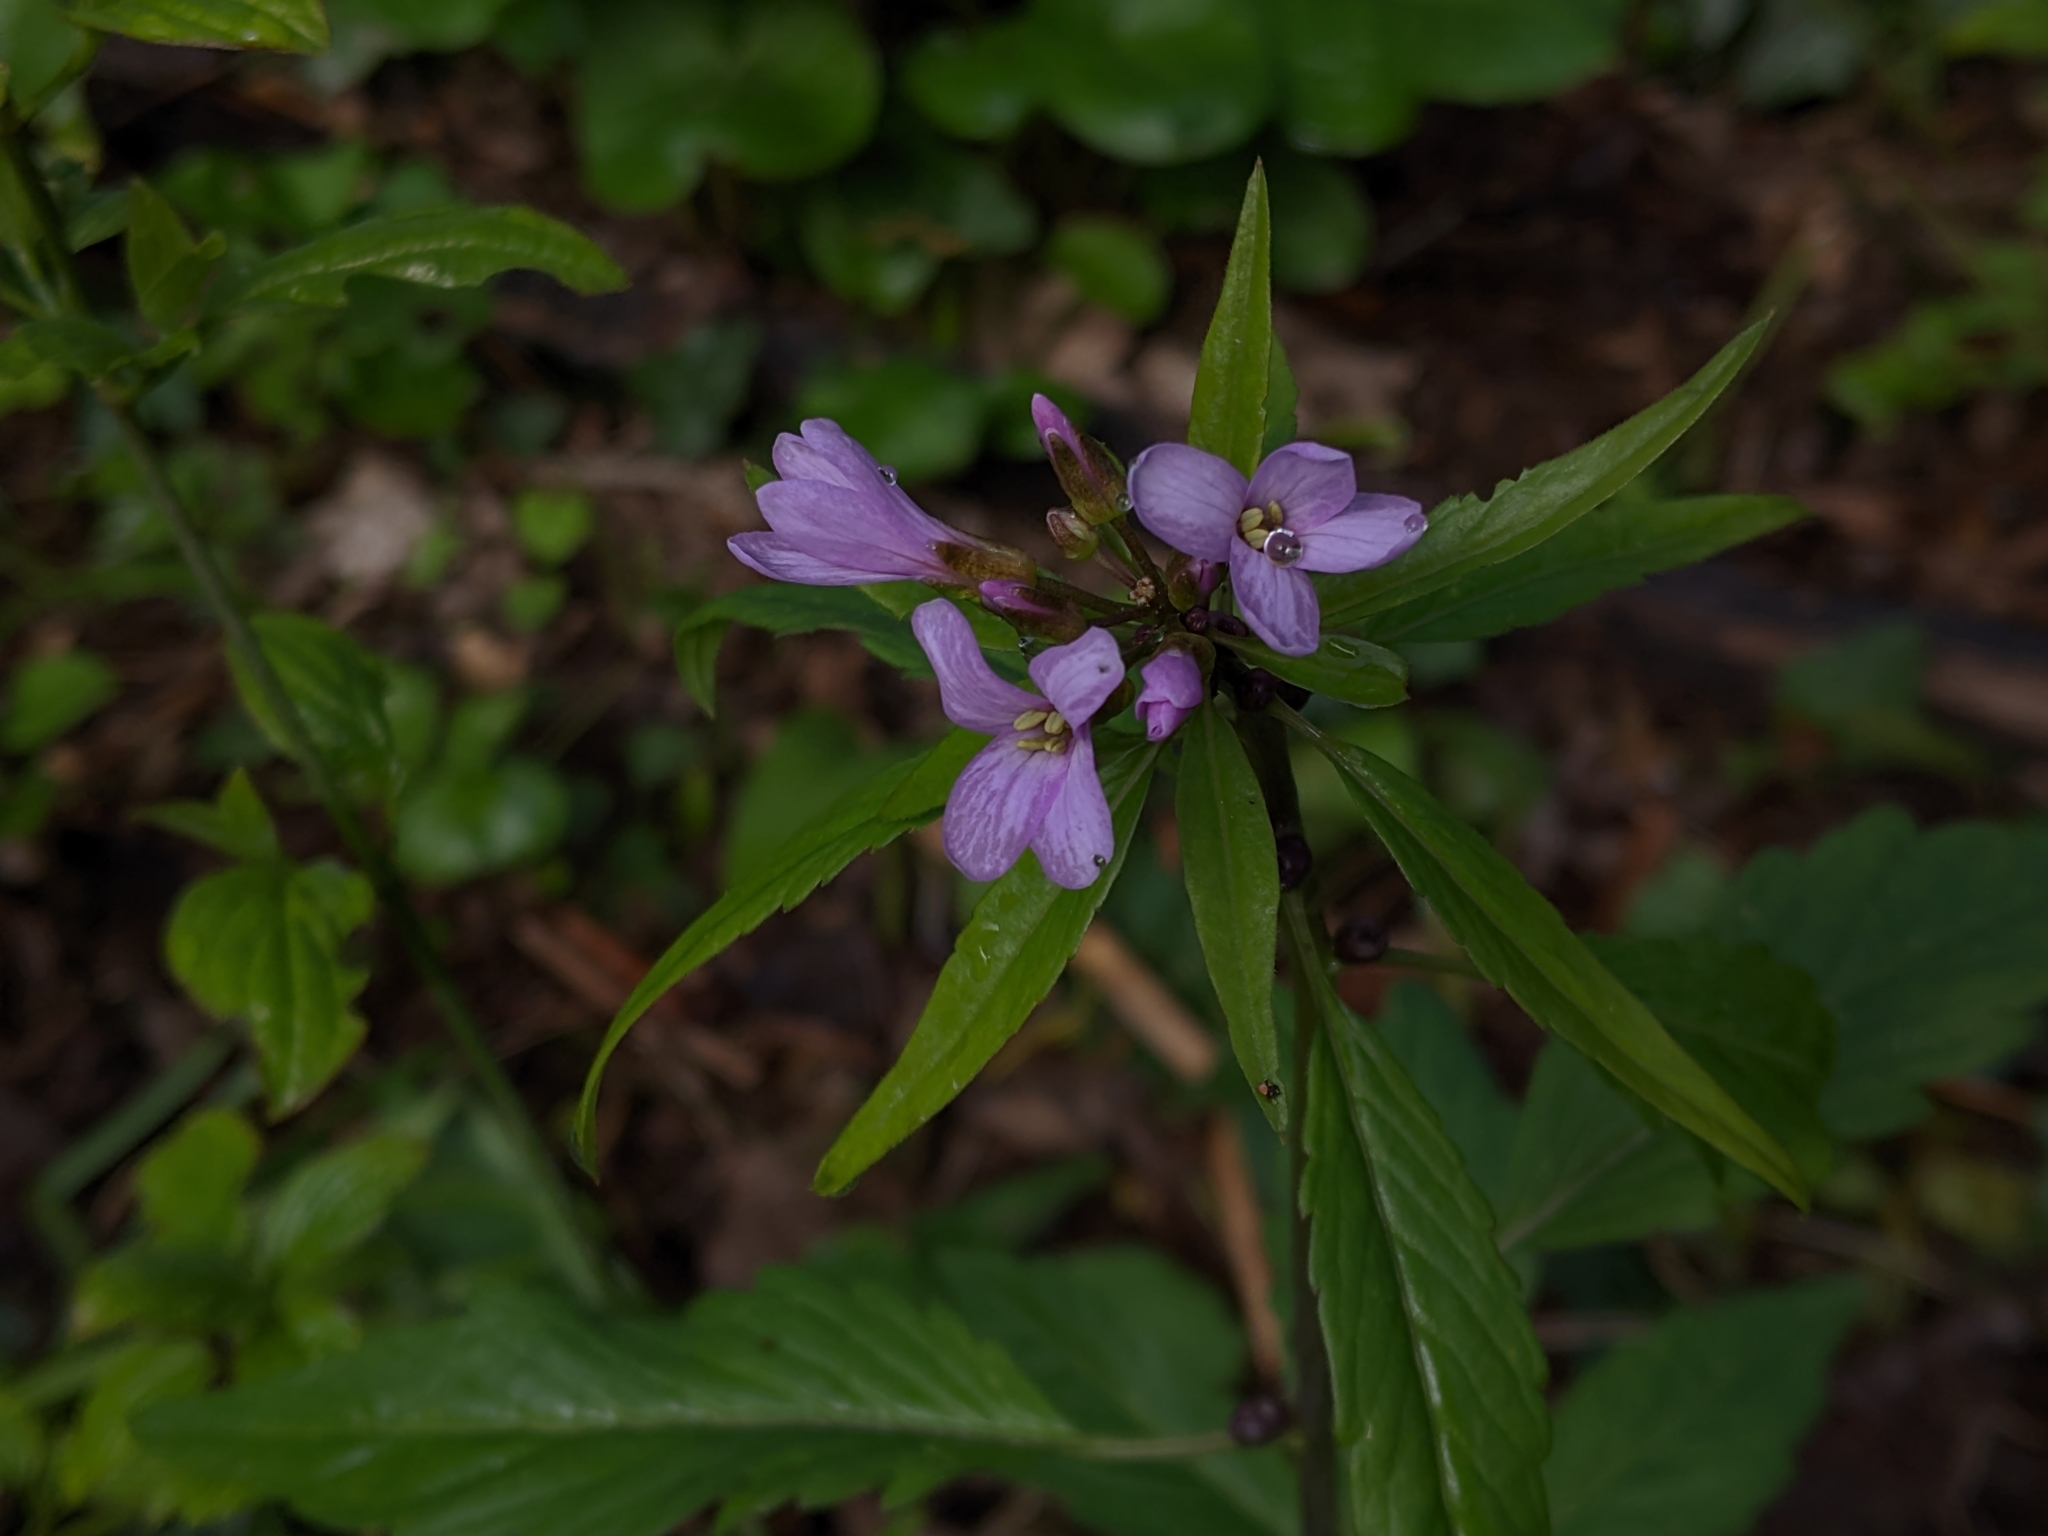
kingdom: Plantae
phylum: Tracheophyta
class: Magnoliopsida
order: Brassicales
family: Brassicaceae
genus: Cardamine
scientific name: Cardamine bulbifera
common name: Coralroot bittercress
